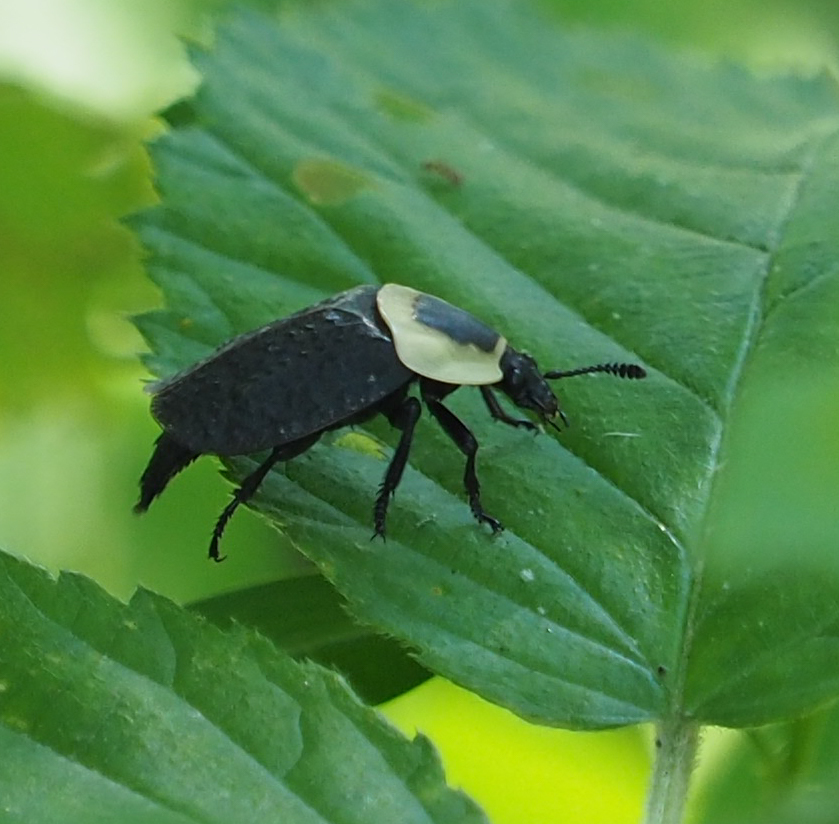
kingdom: Animalia
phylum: Arthropoda
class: Insecta
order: Coleoptera
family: Staphylinidae
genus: Necrophila
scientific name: Necrophila americana
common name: American carrion beetle
